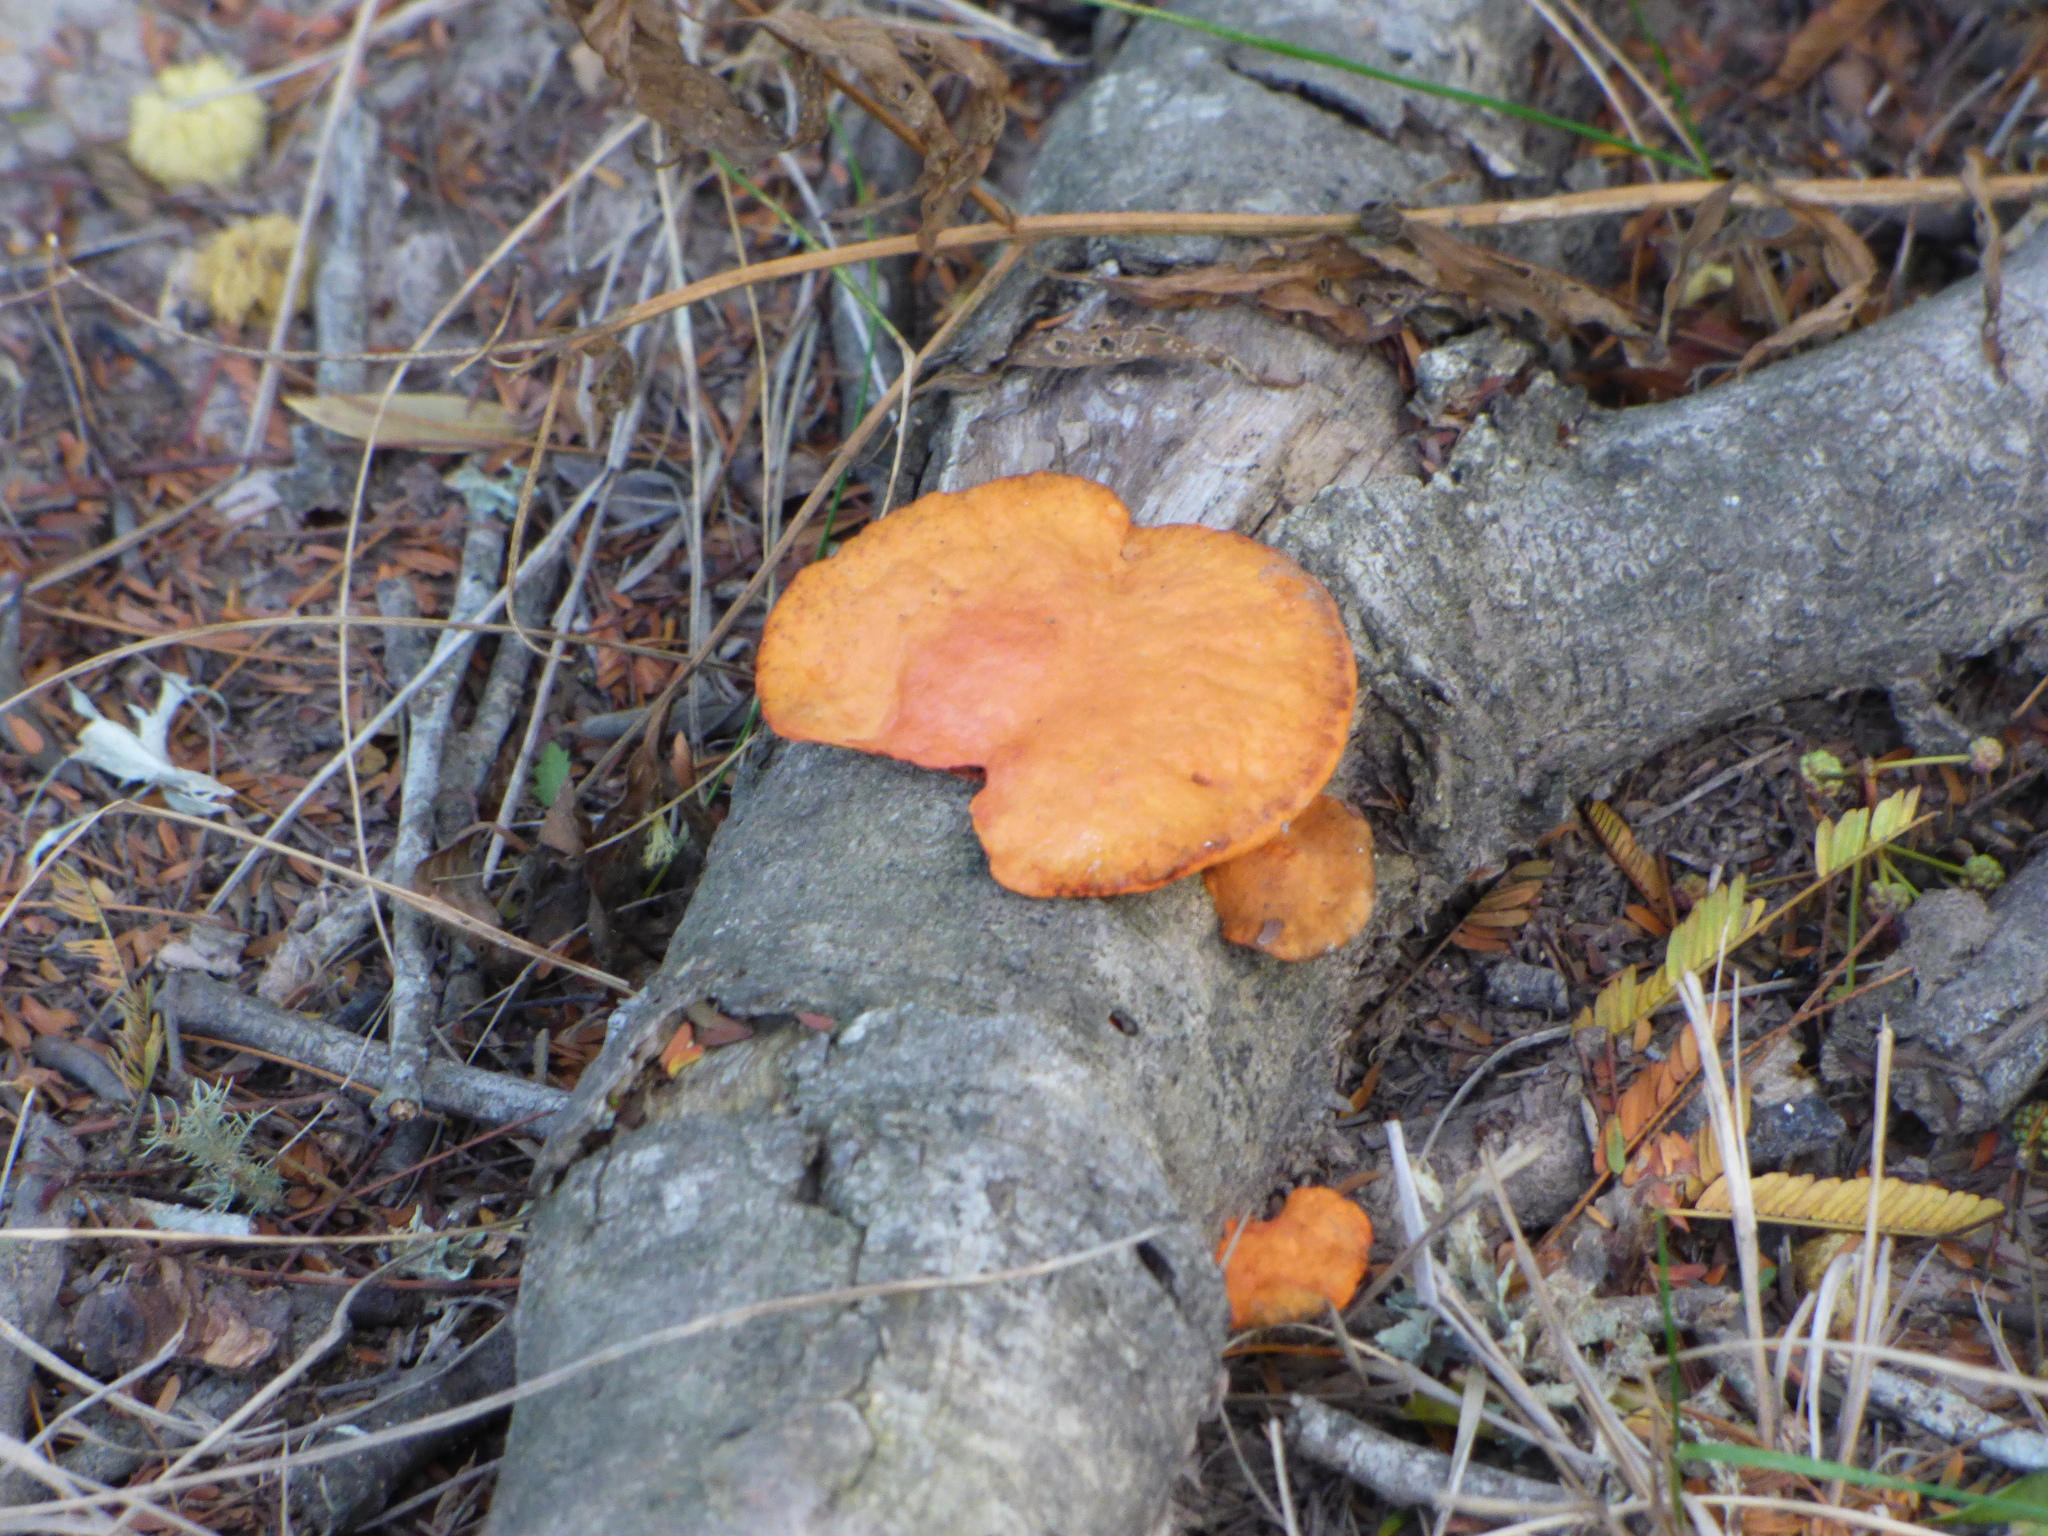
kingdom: Fungi
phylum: Basidiomycota
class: Agaricomycetes
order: Polyporales
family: Polyporaceae
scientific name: Polyporaceae
